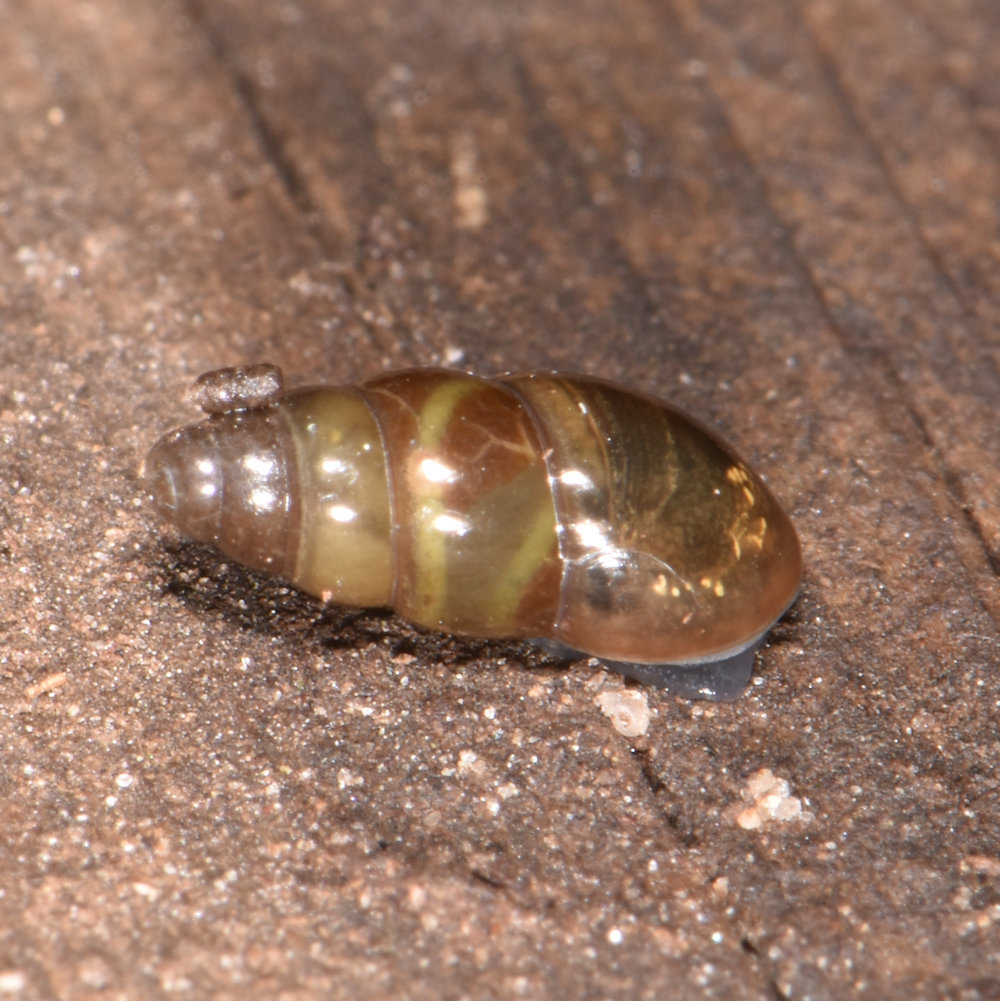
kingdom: Animalia
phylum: Mollusca
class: Gastropoda
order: Stylommatophora
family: Cochlicopidae
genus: Cochlicopa
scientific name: Cochlicopa lubrica
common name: Glossy pillar snail
